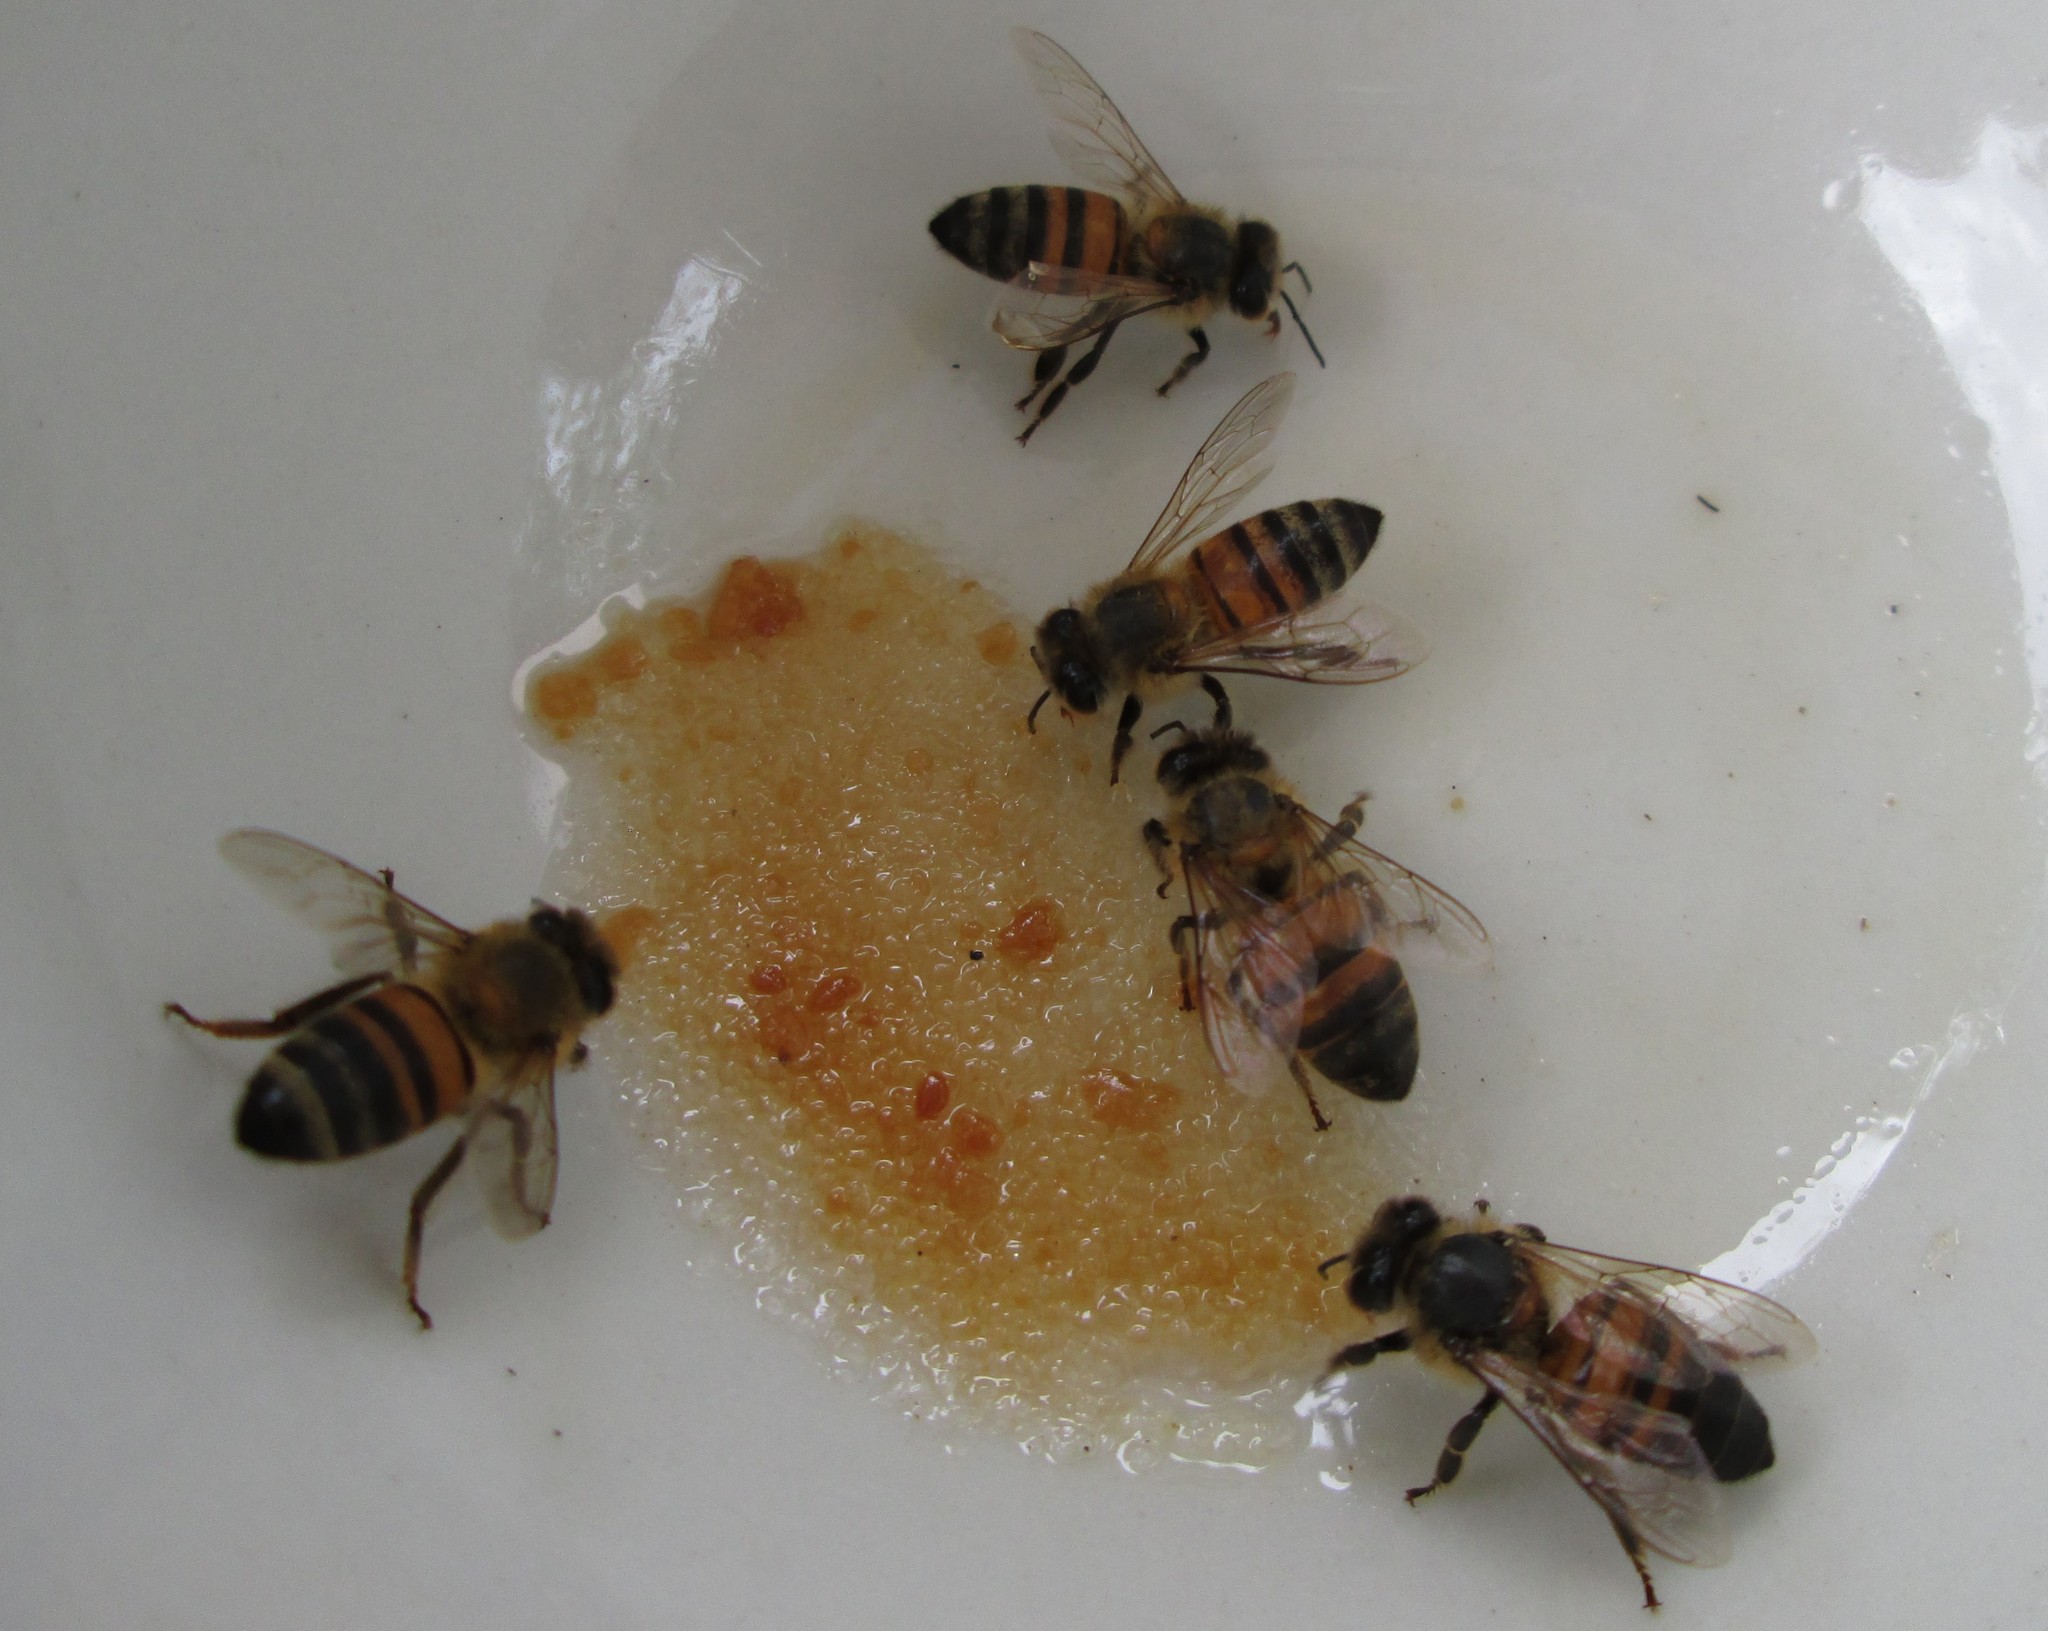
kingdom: Animalia
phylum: Arthropoda
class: Insecta
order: Hymenoptera
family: Apidae
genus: Apis
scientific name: Apis mellifera
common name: Honey bee
